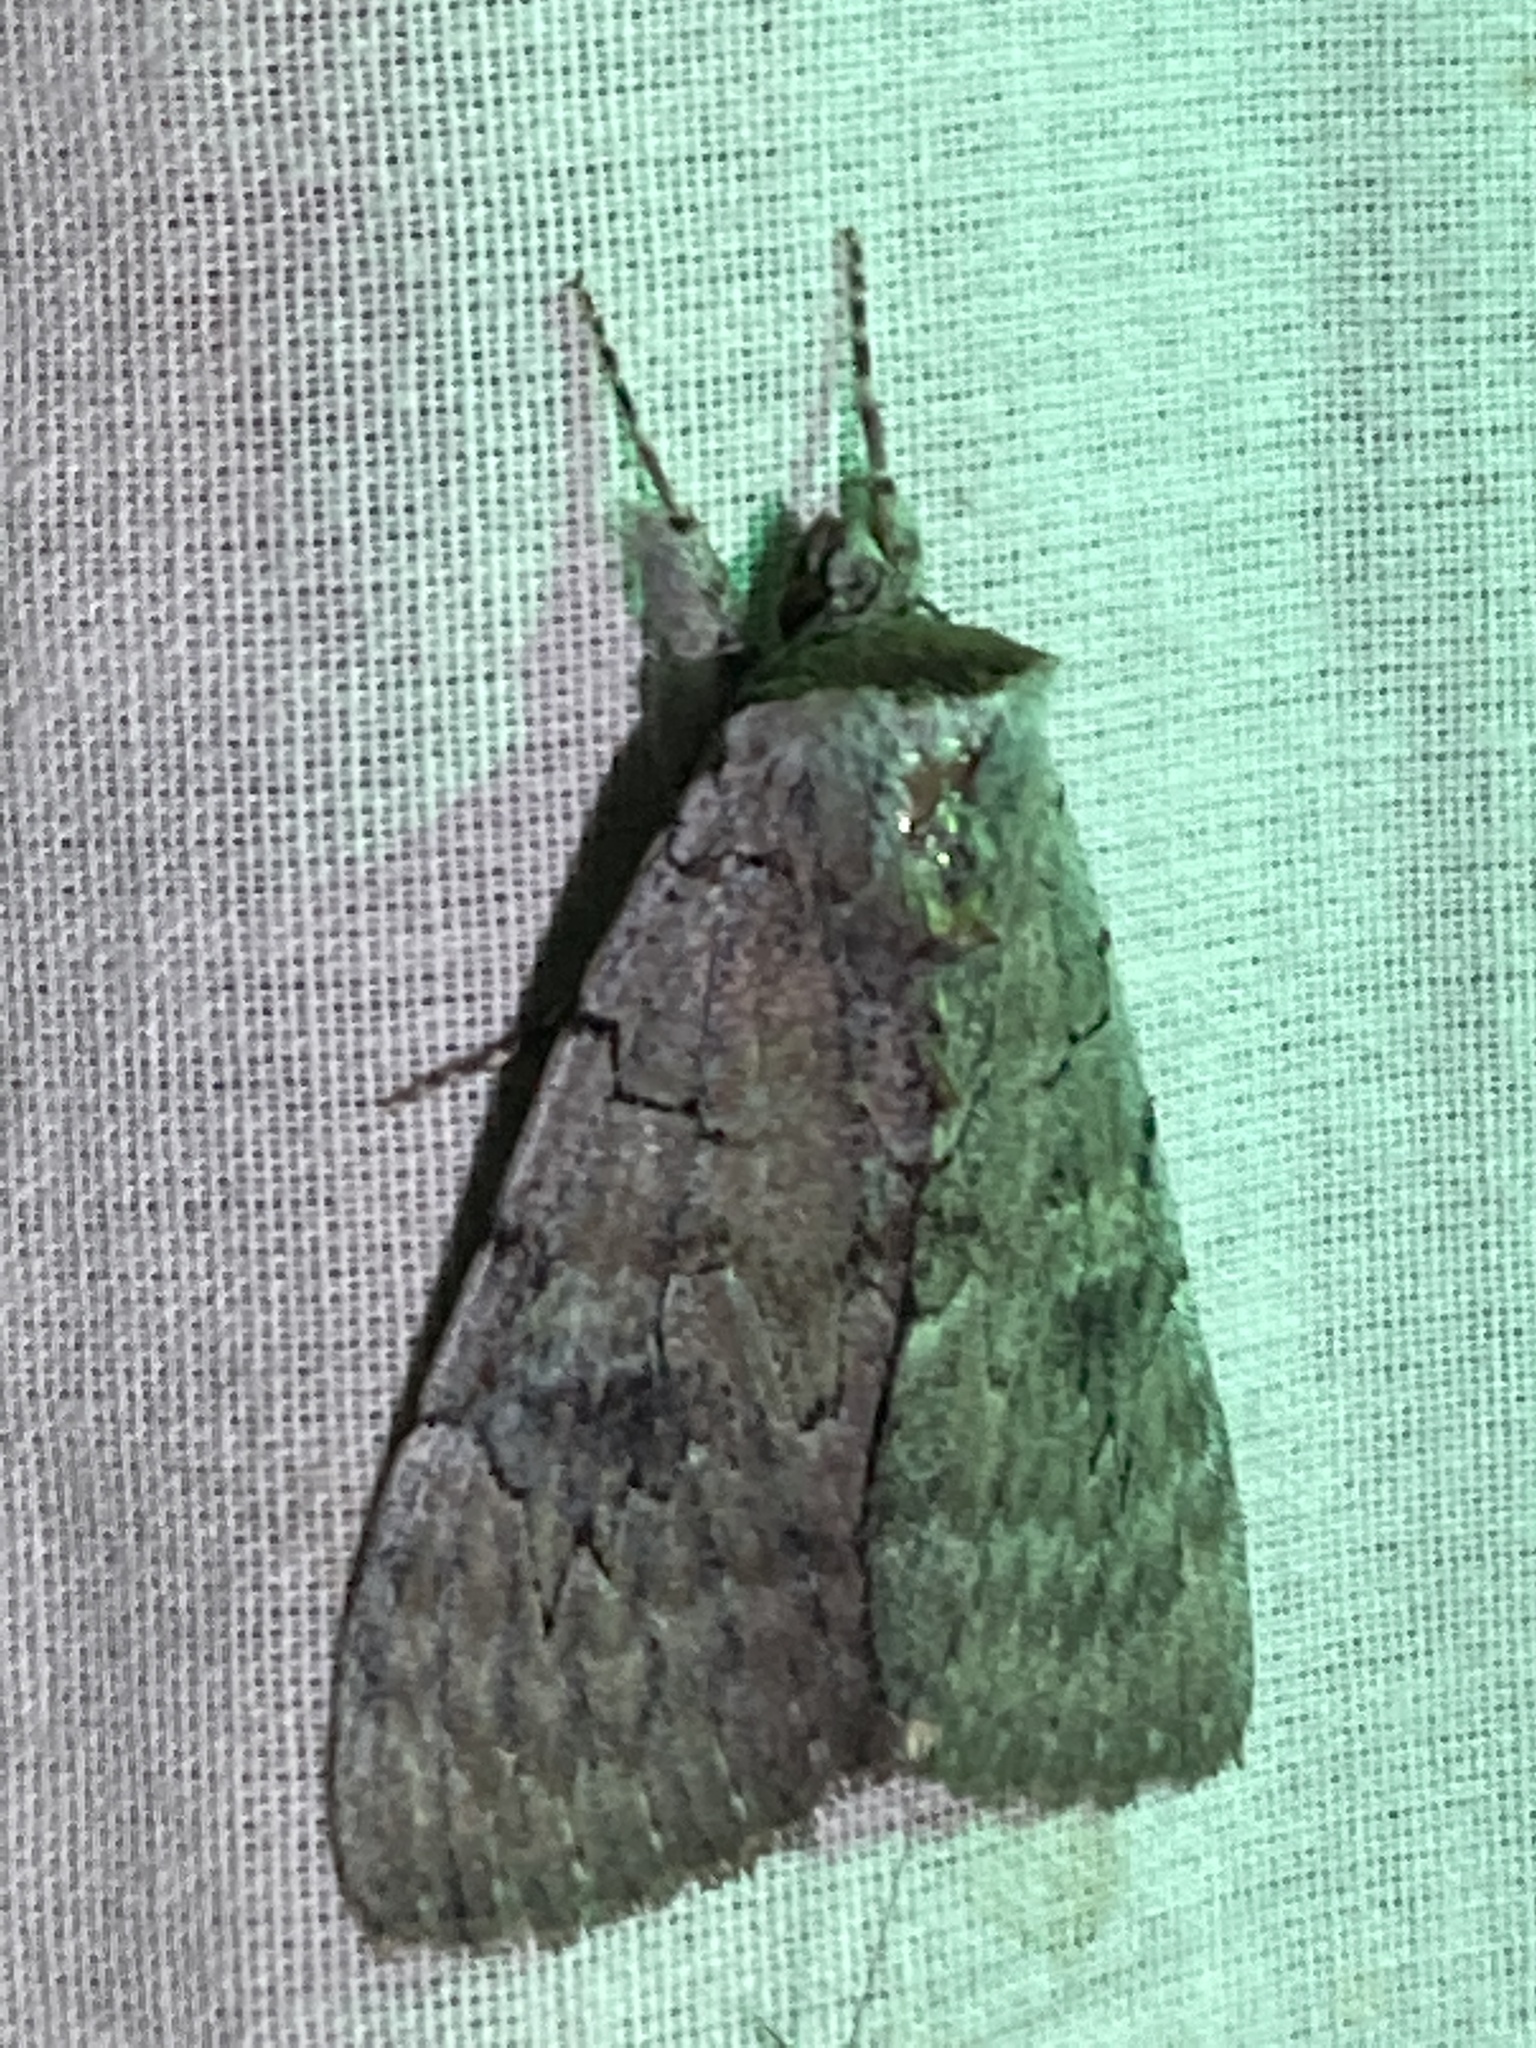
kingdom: Animalia
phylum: Arthropoda
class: Insecta
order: Lepidoptera
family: Erebidae
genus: Catocala
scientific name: Catocala concumbens
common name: Pink underwing
